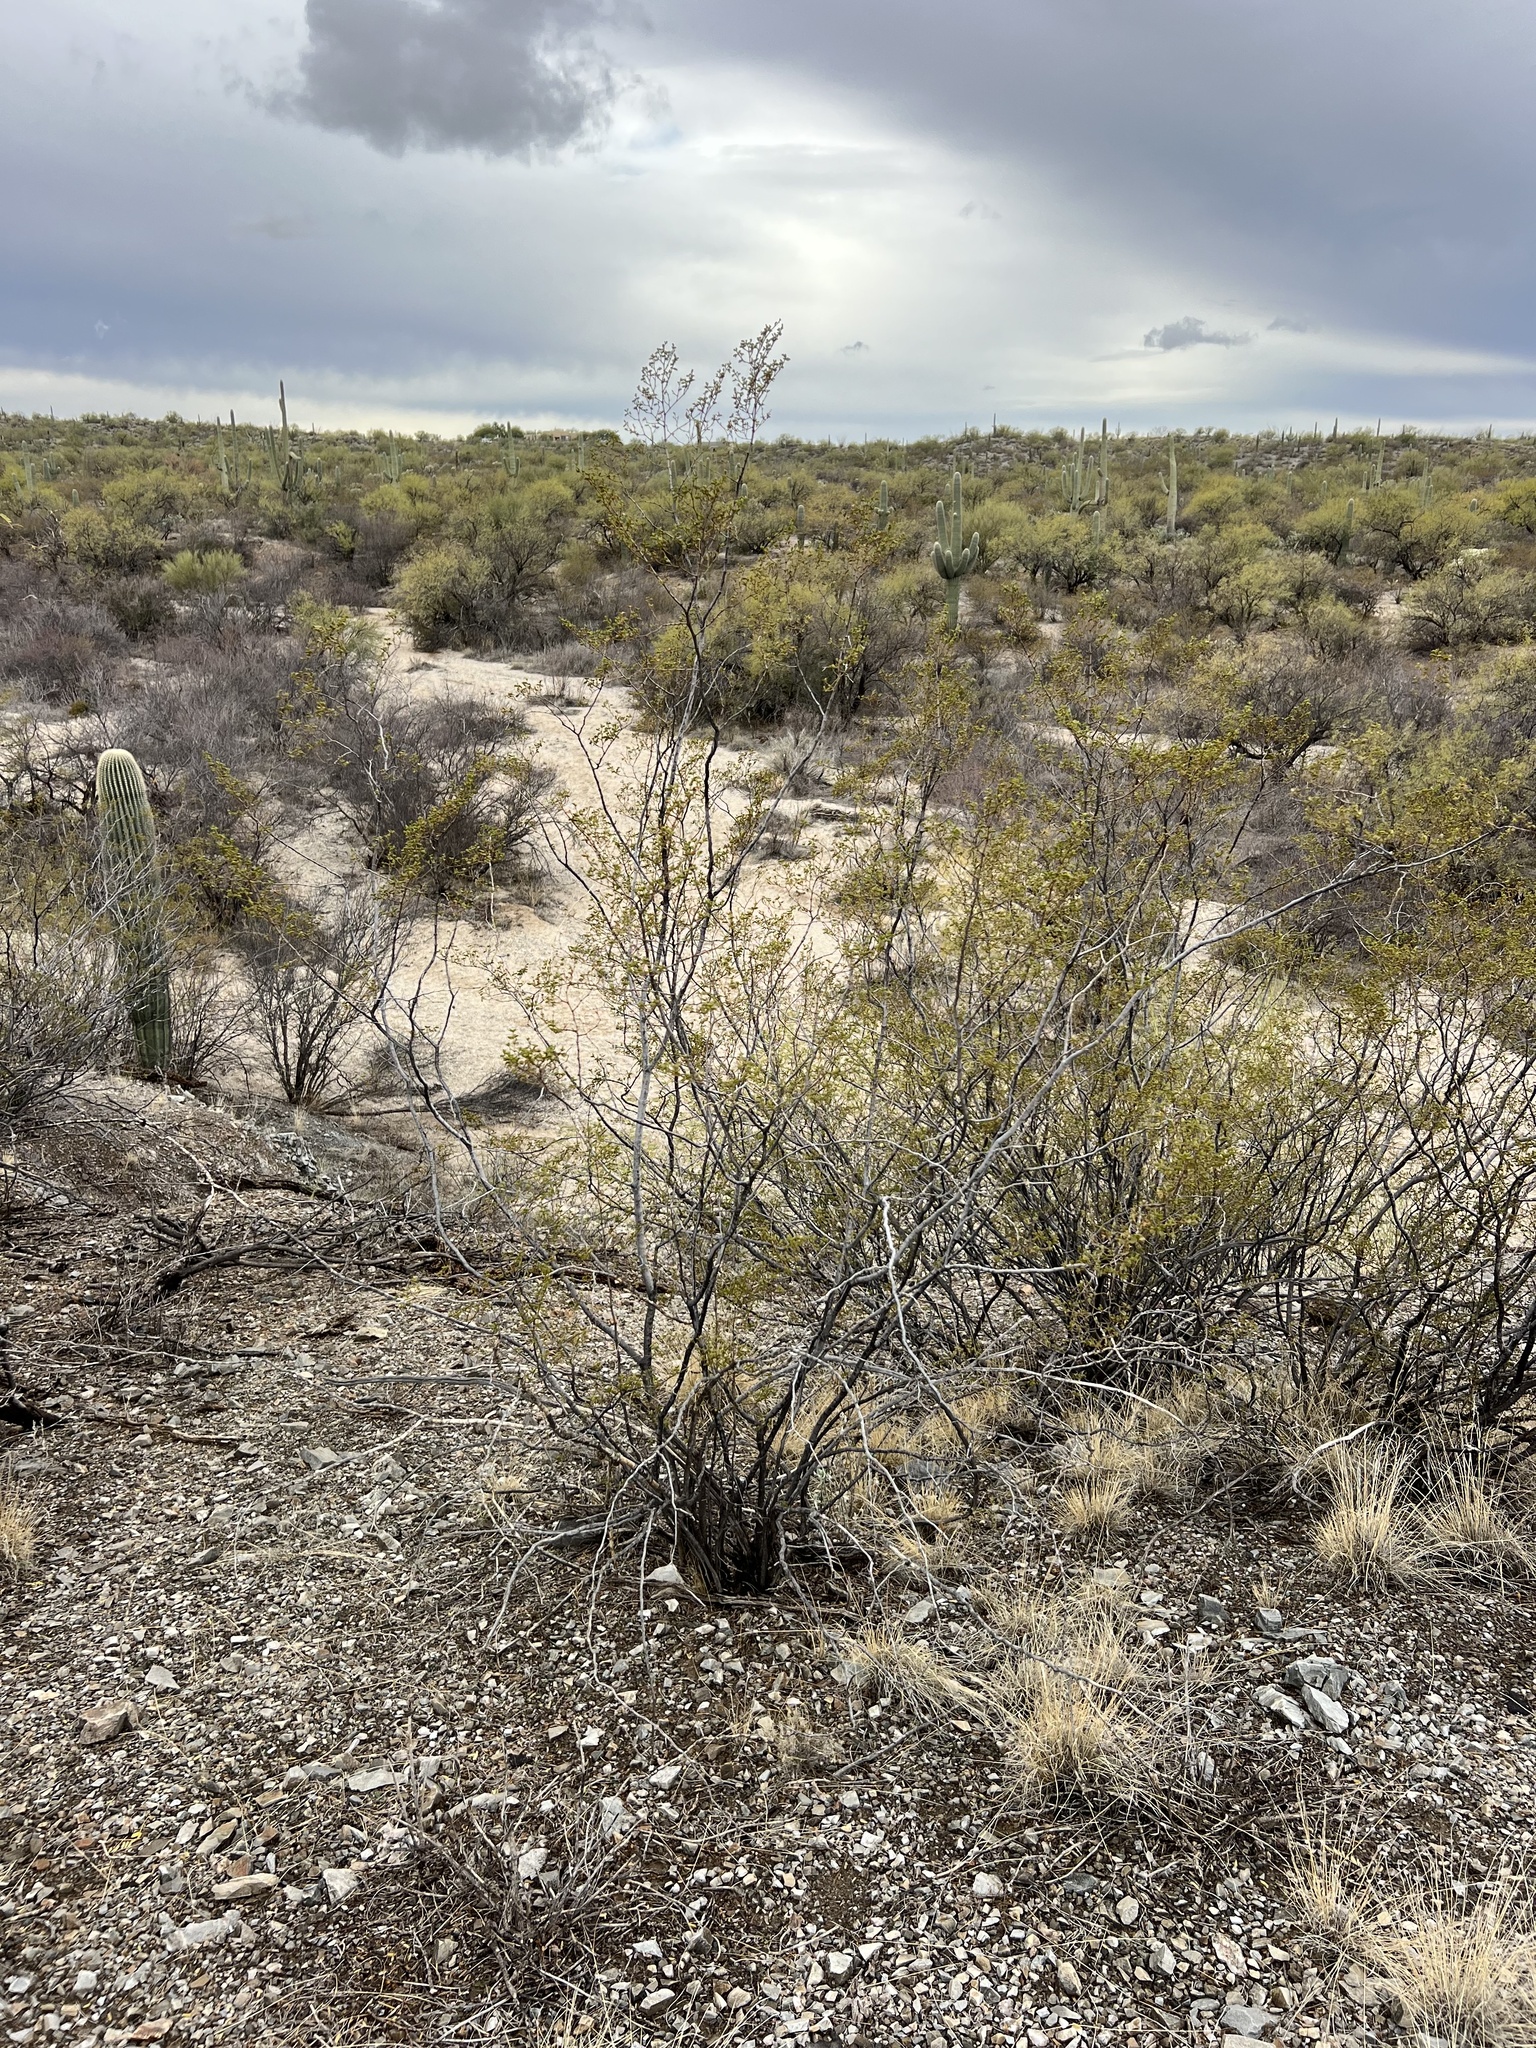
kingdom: Plantae
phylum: Tracheophyta
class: Magnoliopsida
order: Zygophyllales
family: Zygophyllaceae
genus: Larrea
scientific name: Larrea tridentata
